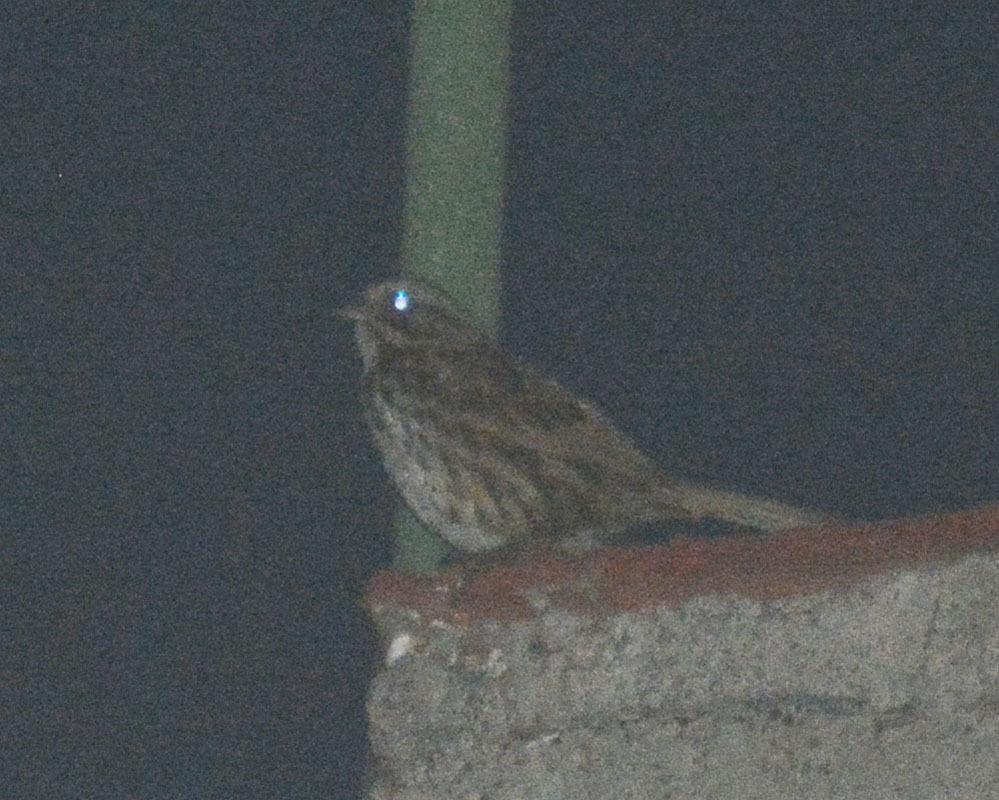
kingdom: Animalia
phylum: Chordata
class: Aves
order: Passeriformes
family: Passerellidae
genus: Melospiza
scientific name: Melospiza melodia
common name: Song sparrow
